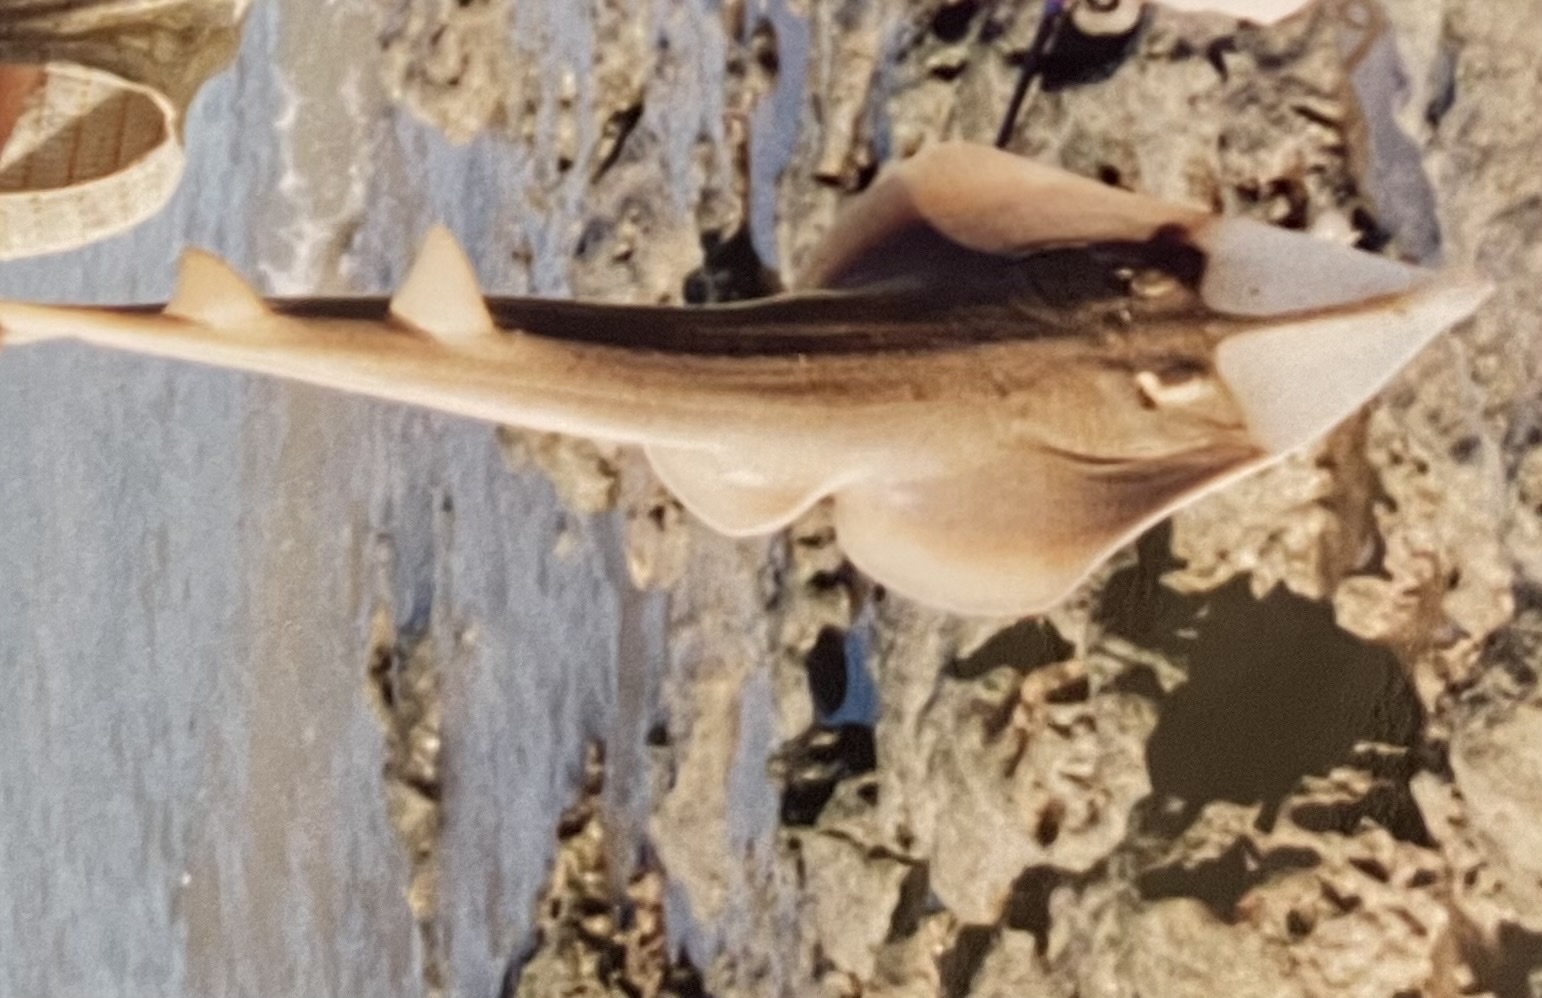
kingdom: Animalia
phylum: Chordata
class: Elasmobranchii
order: Rhinopristiformes
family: Glaucostegidae
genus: Glaucostegus
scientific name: Glaucostegus typus
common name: Giant shovelnose ray
